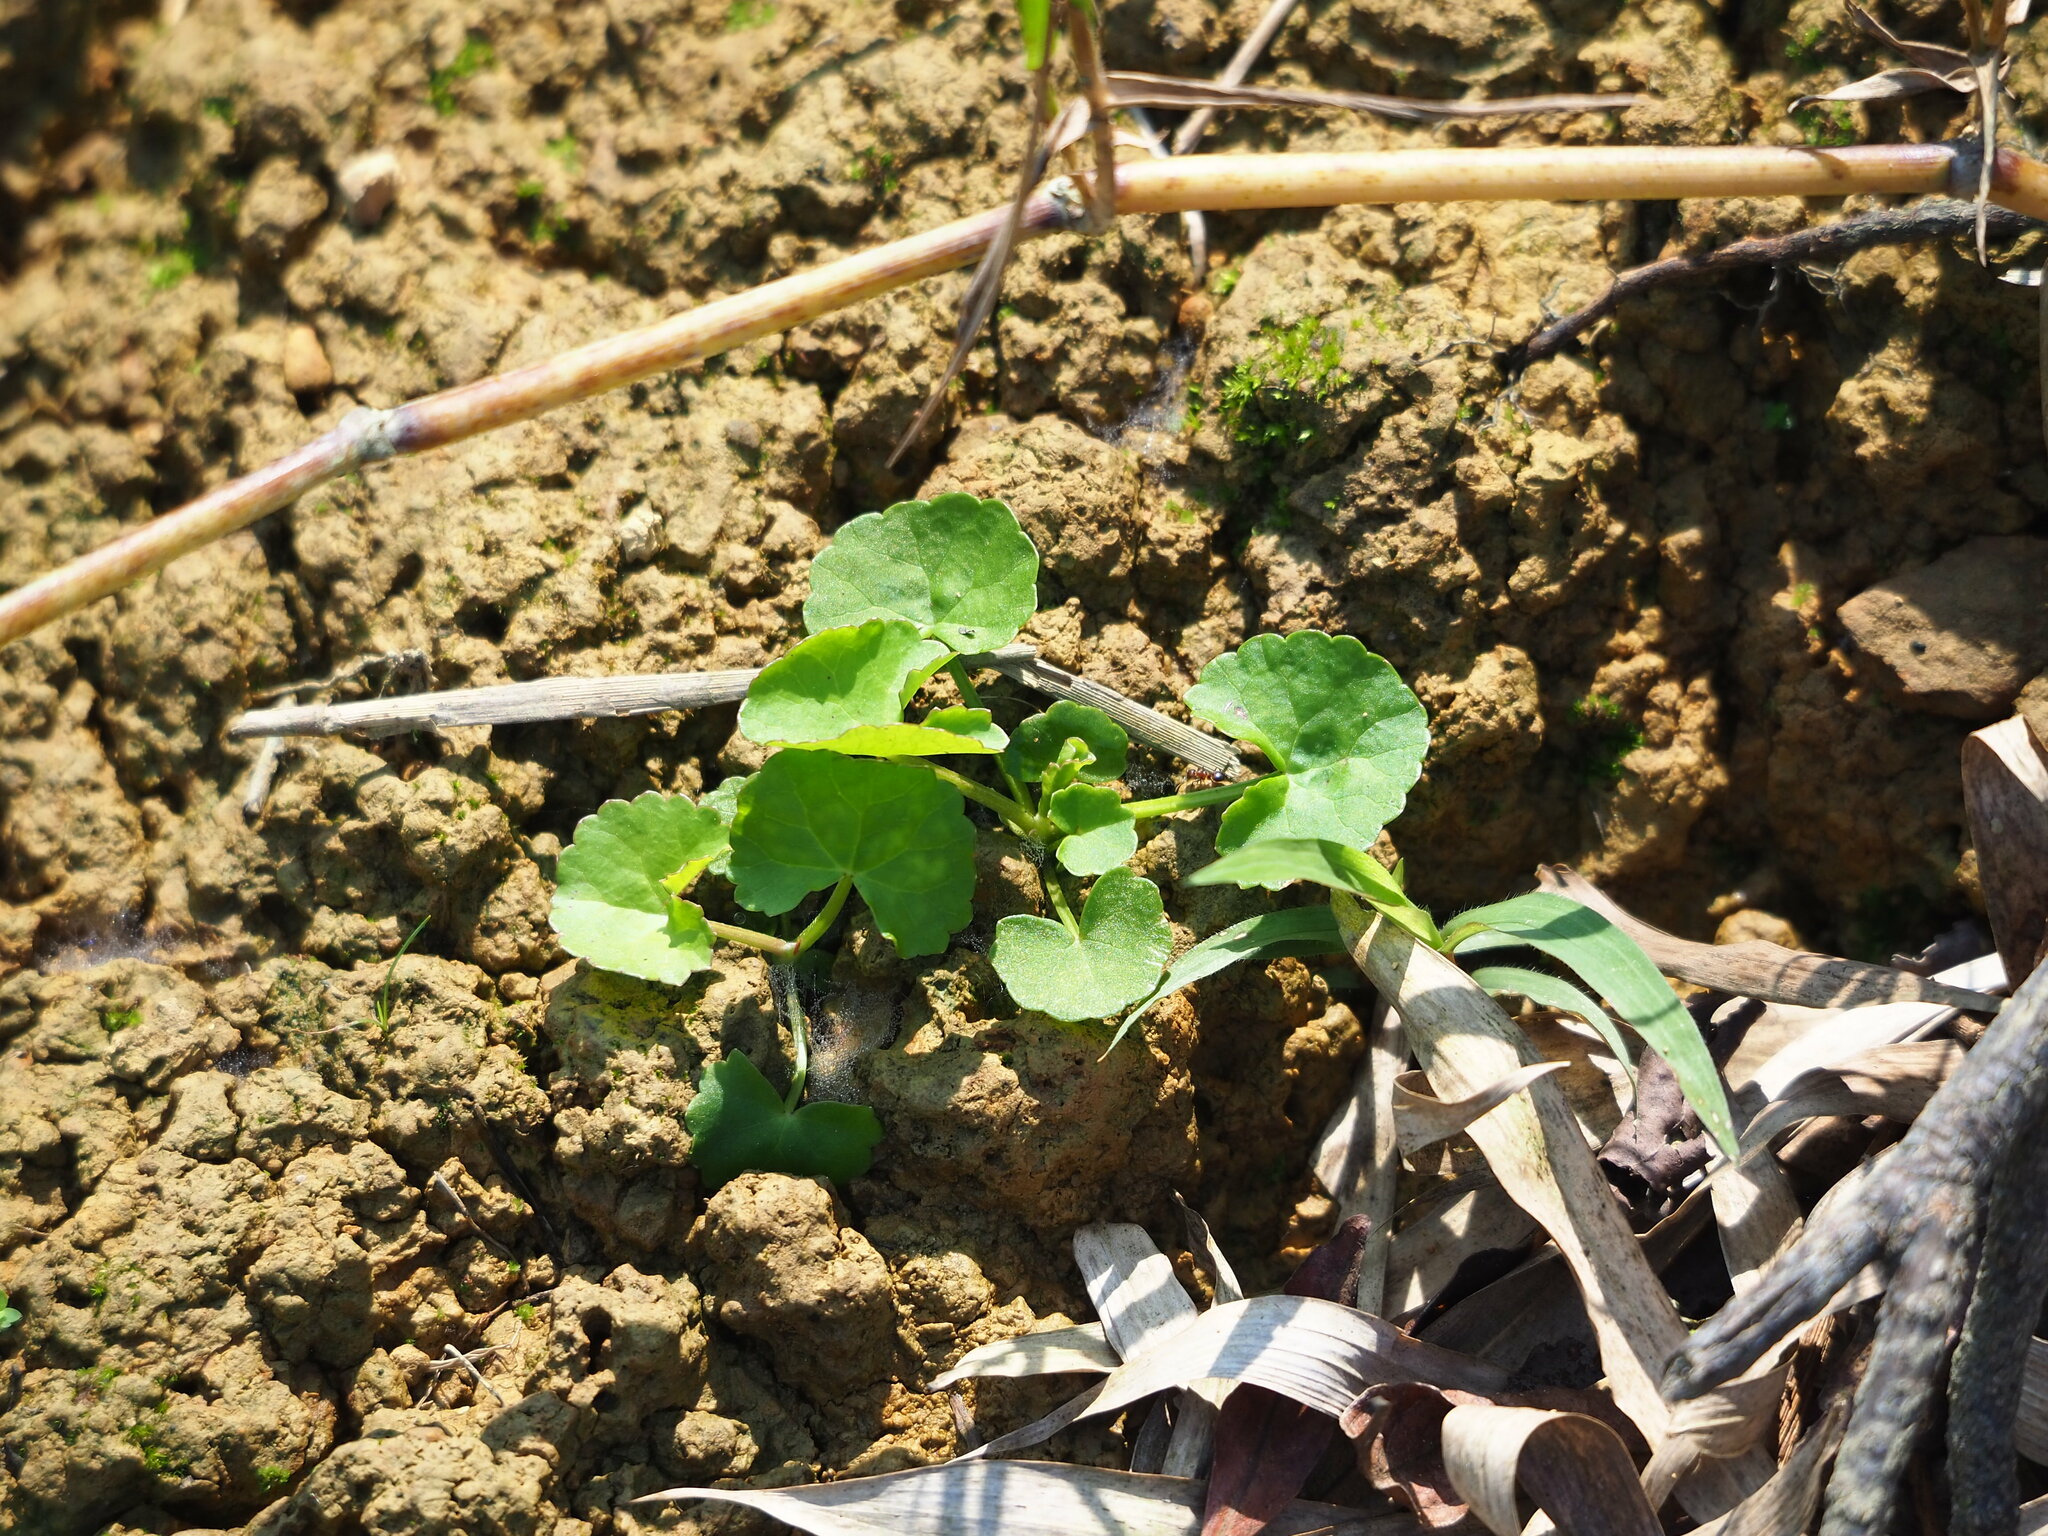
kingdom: Plantae
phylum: Tracheophyta
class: Magnoliopsida
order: Apiales
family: Apiaceae
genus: Centella
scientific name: Centella asiatica
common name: Spadeleaf
